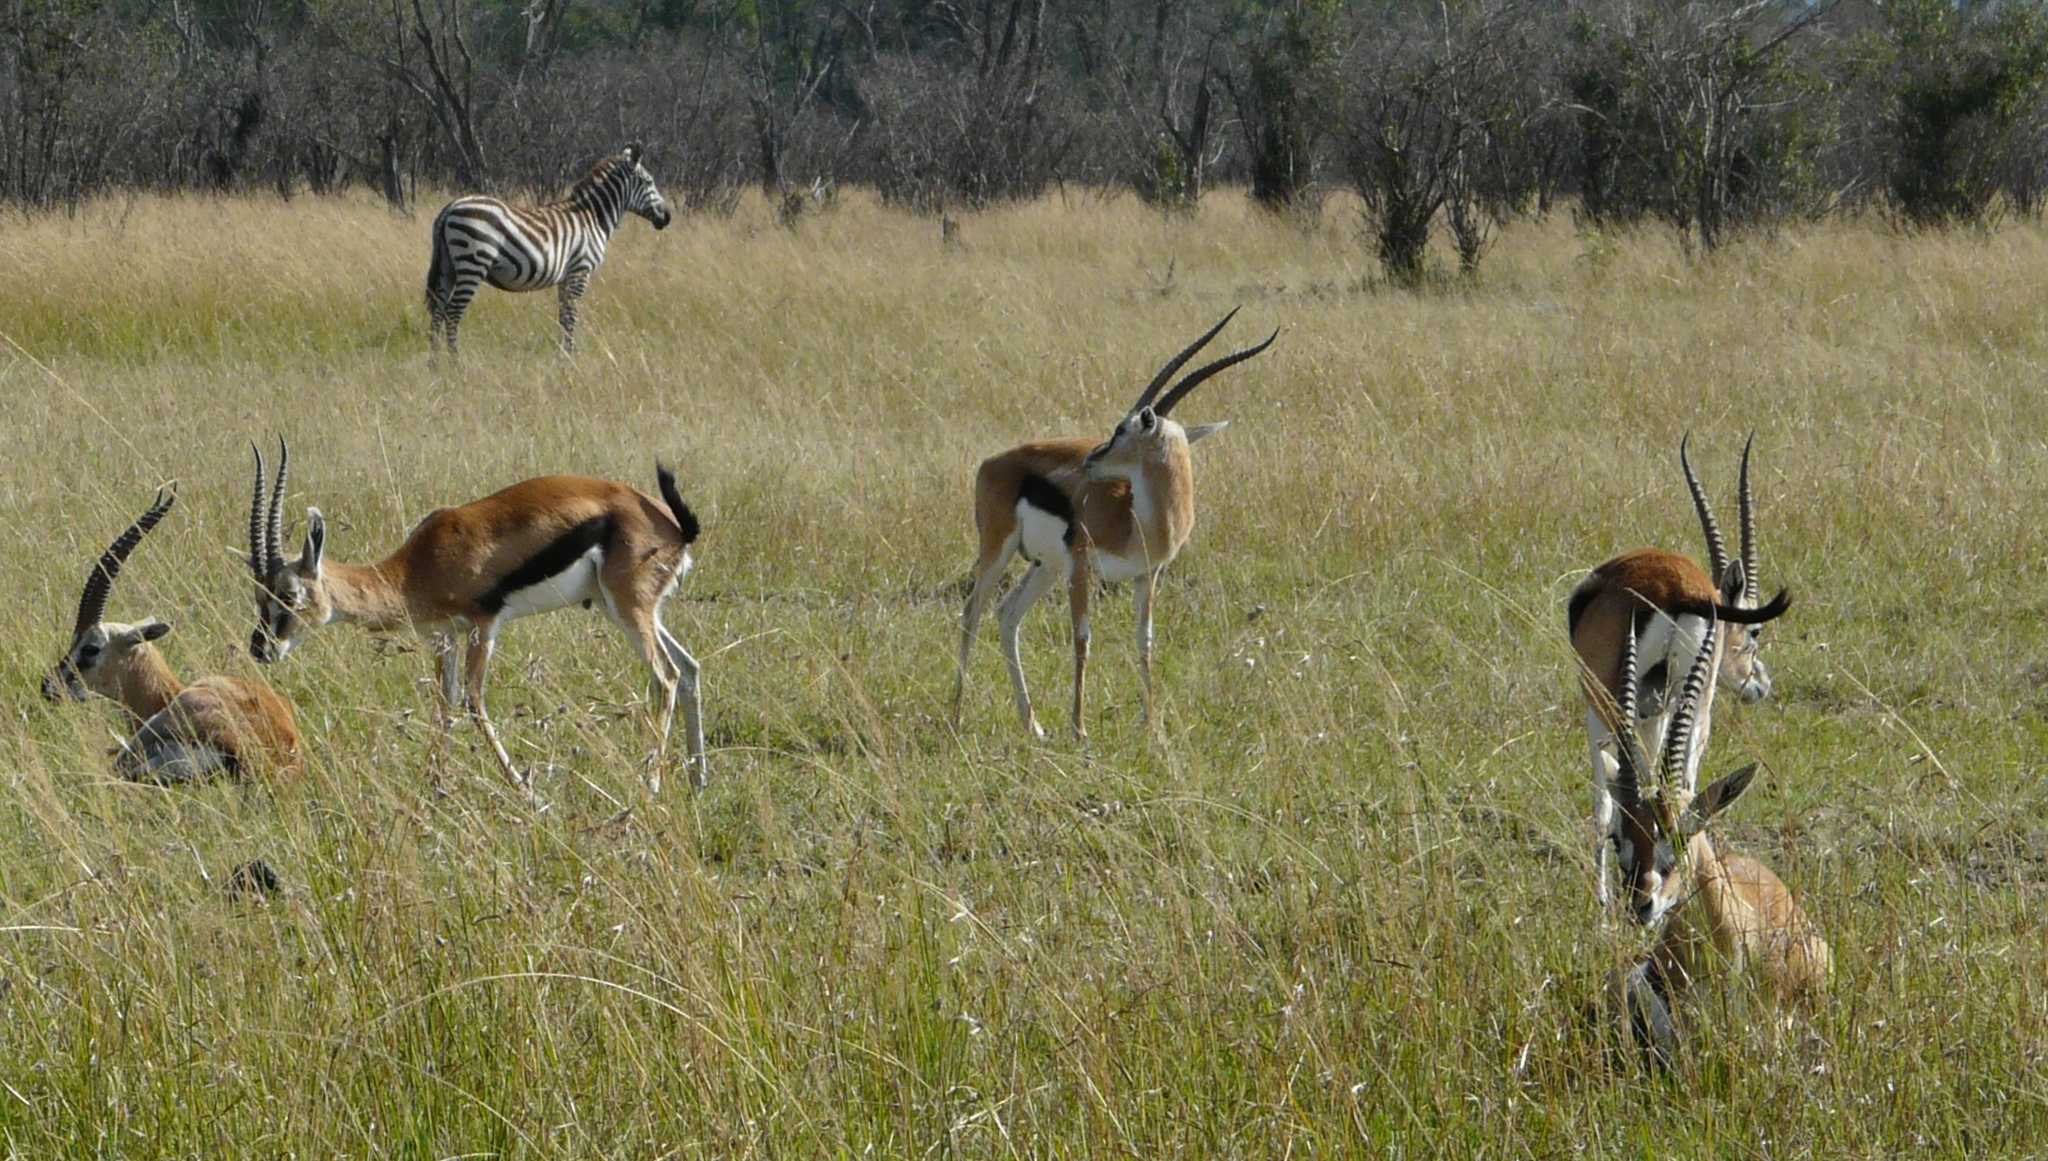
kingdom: Animalia
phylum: Chordata
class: Mammalia
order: Artiodactyla
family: Bovidae
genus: Eudorcas
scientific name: Eudorcas thomsonii
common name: Thomson's gazelle
